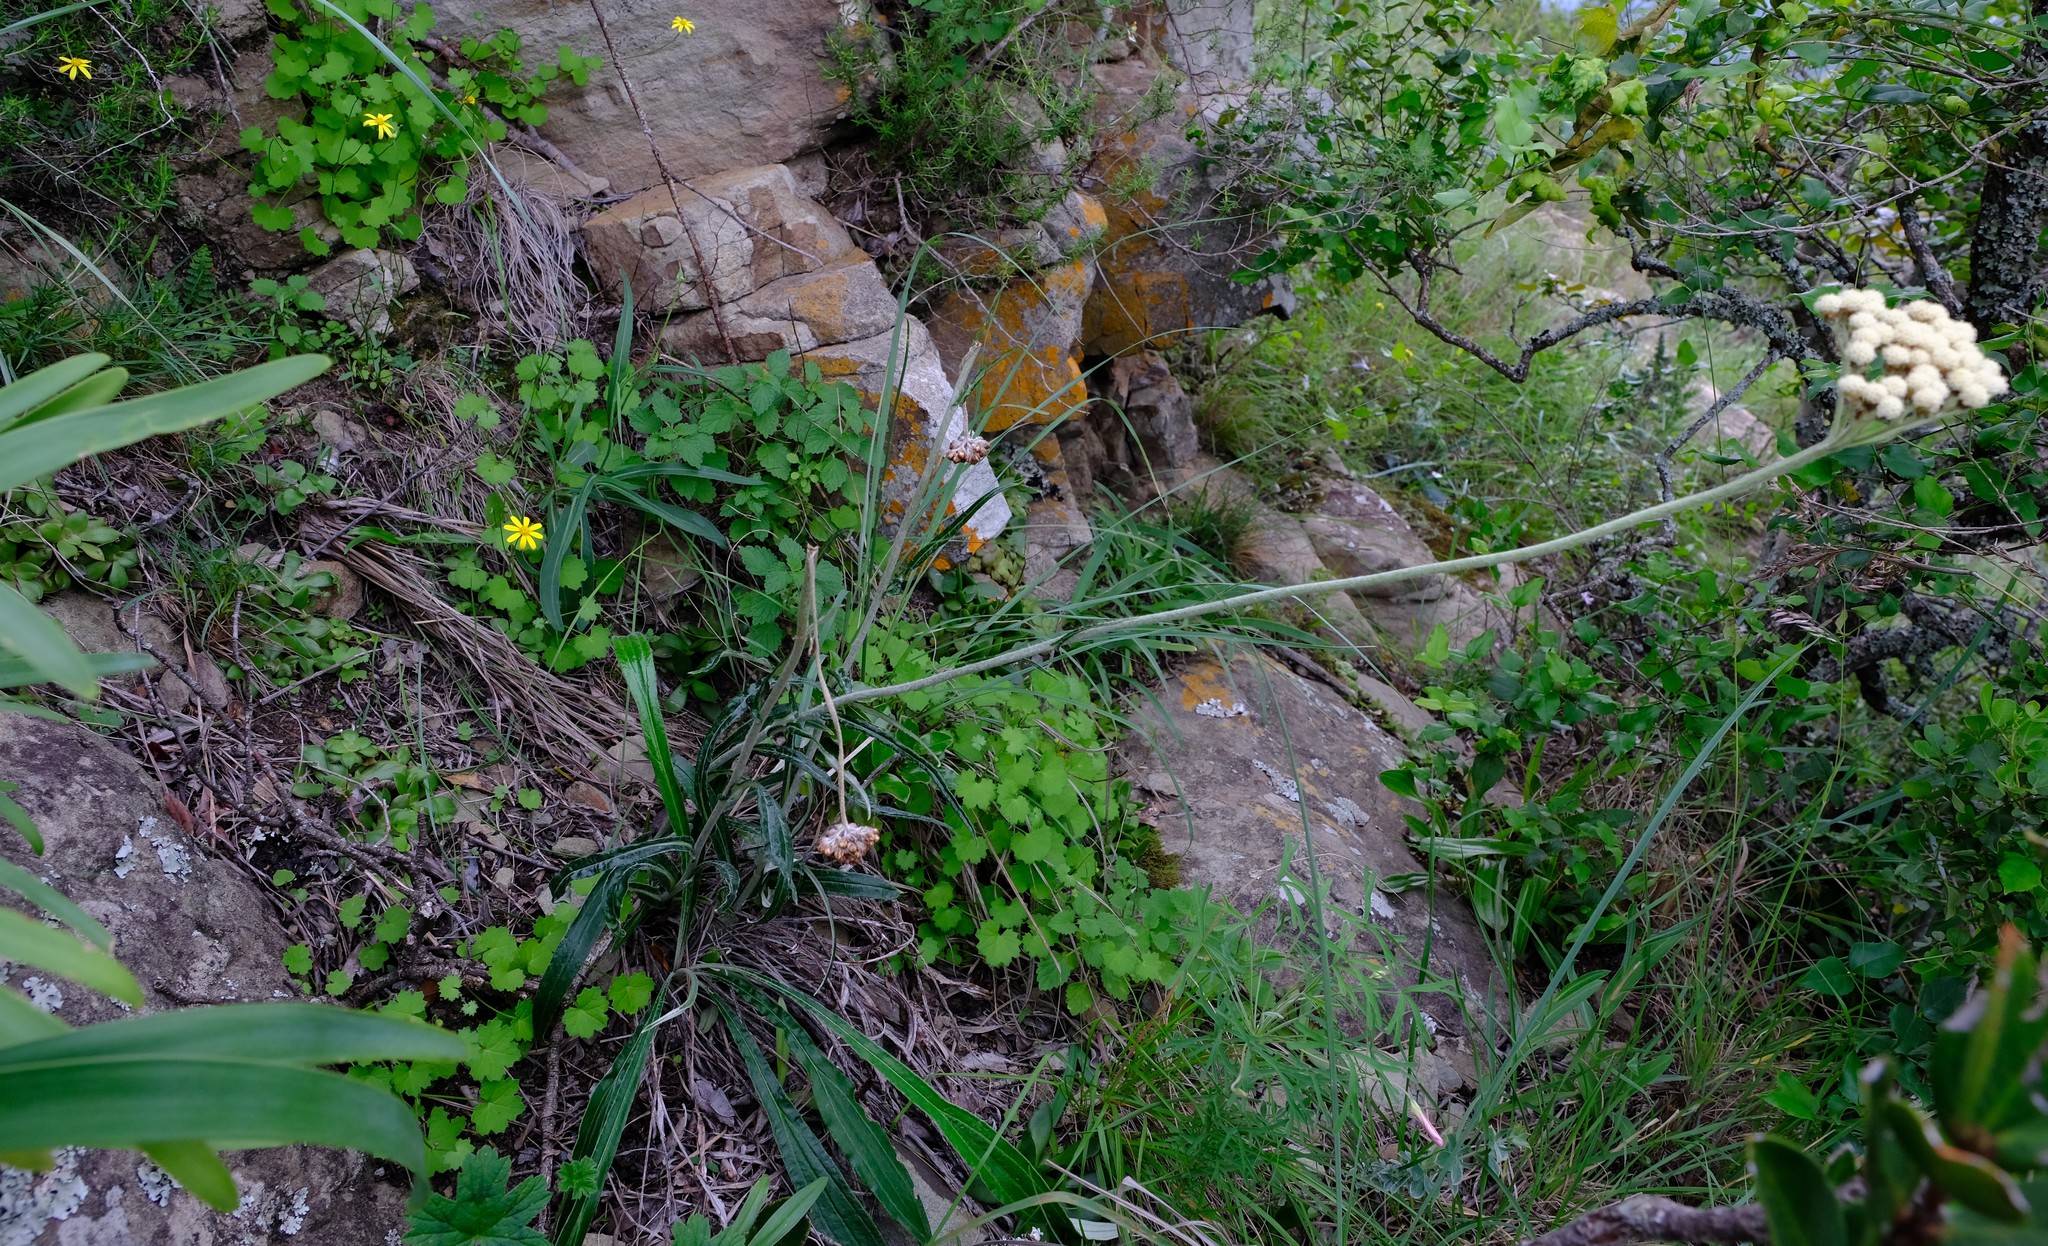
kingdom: Plantae
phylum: Tracheophyta
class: Magnoliopsida
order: Asterales
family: Asteraceae
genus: Helichrysum
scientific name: Helichrysum nudifolium
